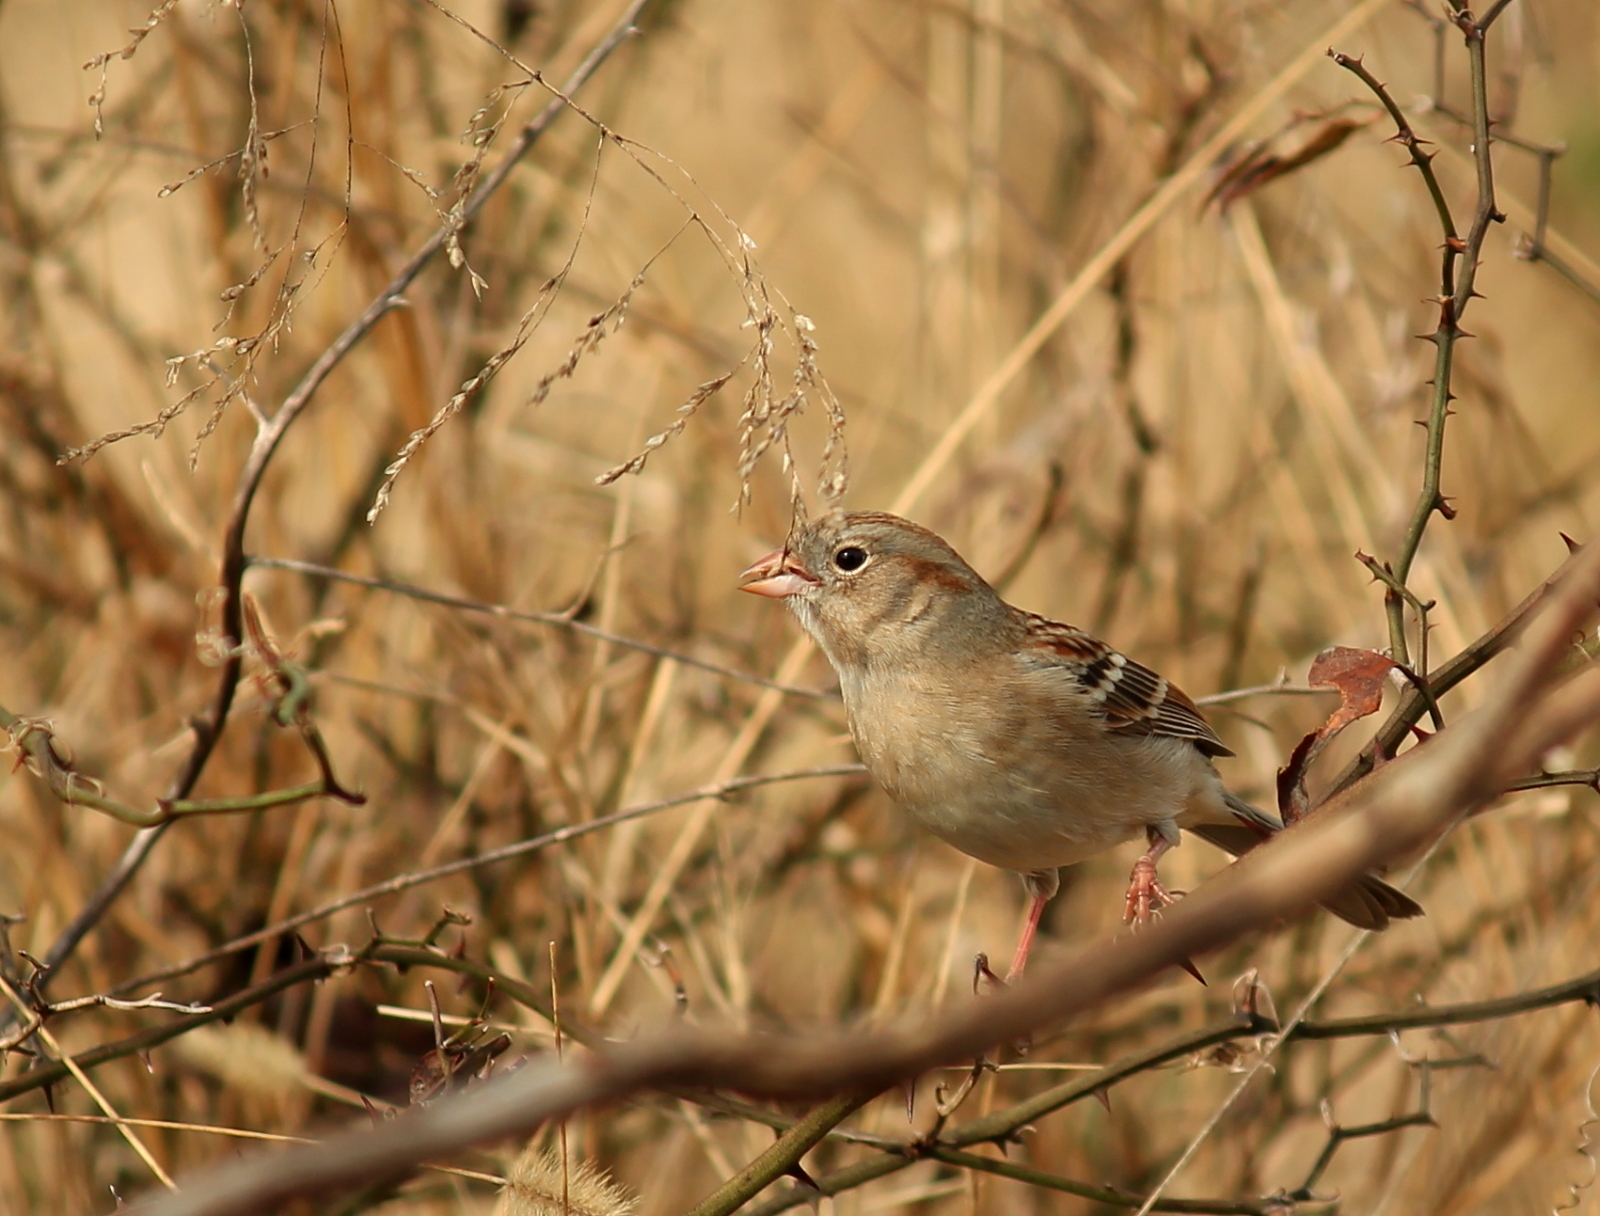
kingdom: Animalia
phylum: Chordata
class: Aves
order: Passeriformes
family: Passerellidae
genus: Spizella
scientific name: Spizella pusilla
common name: Field sparrow
